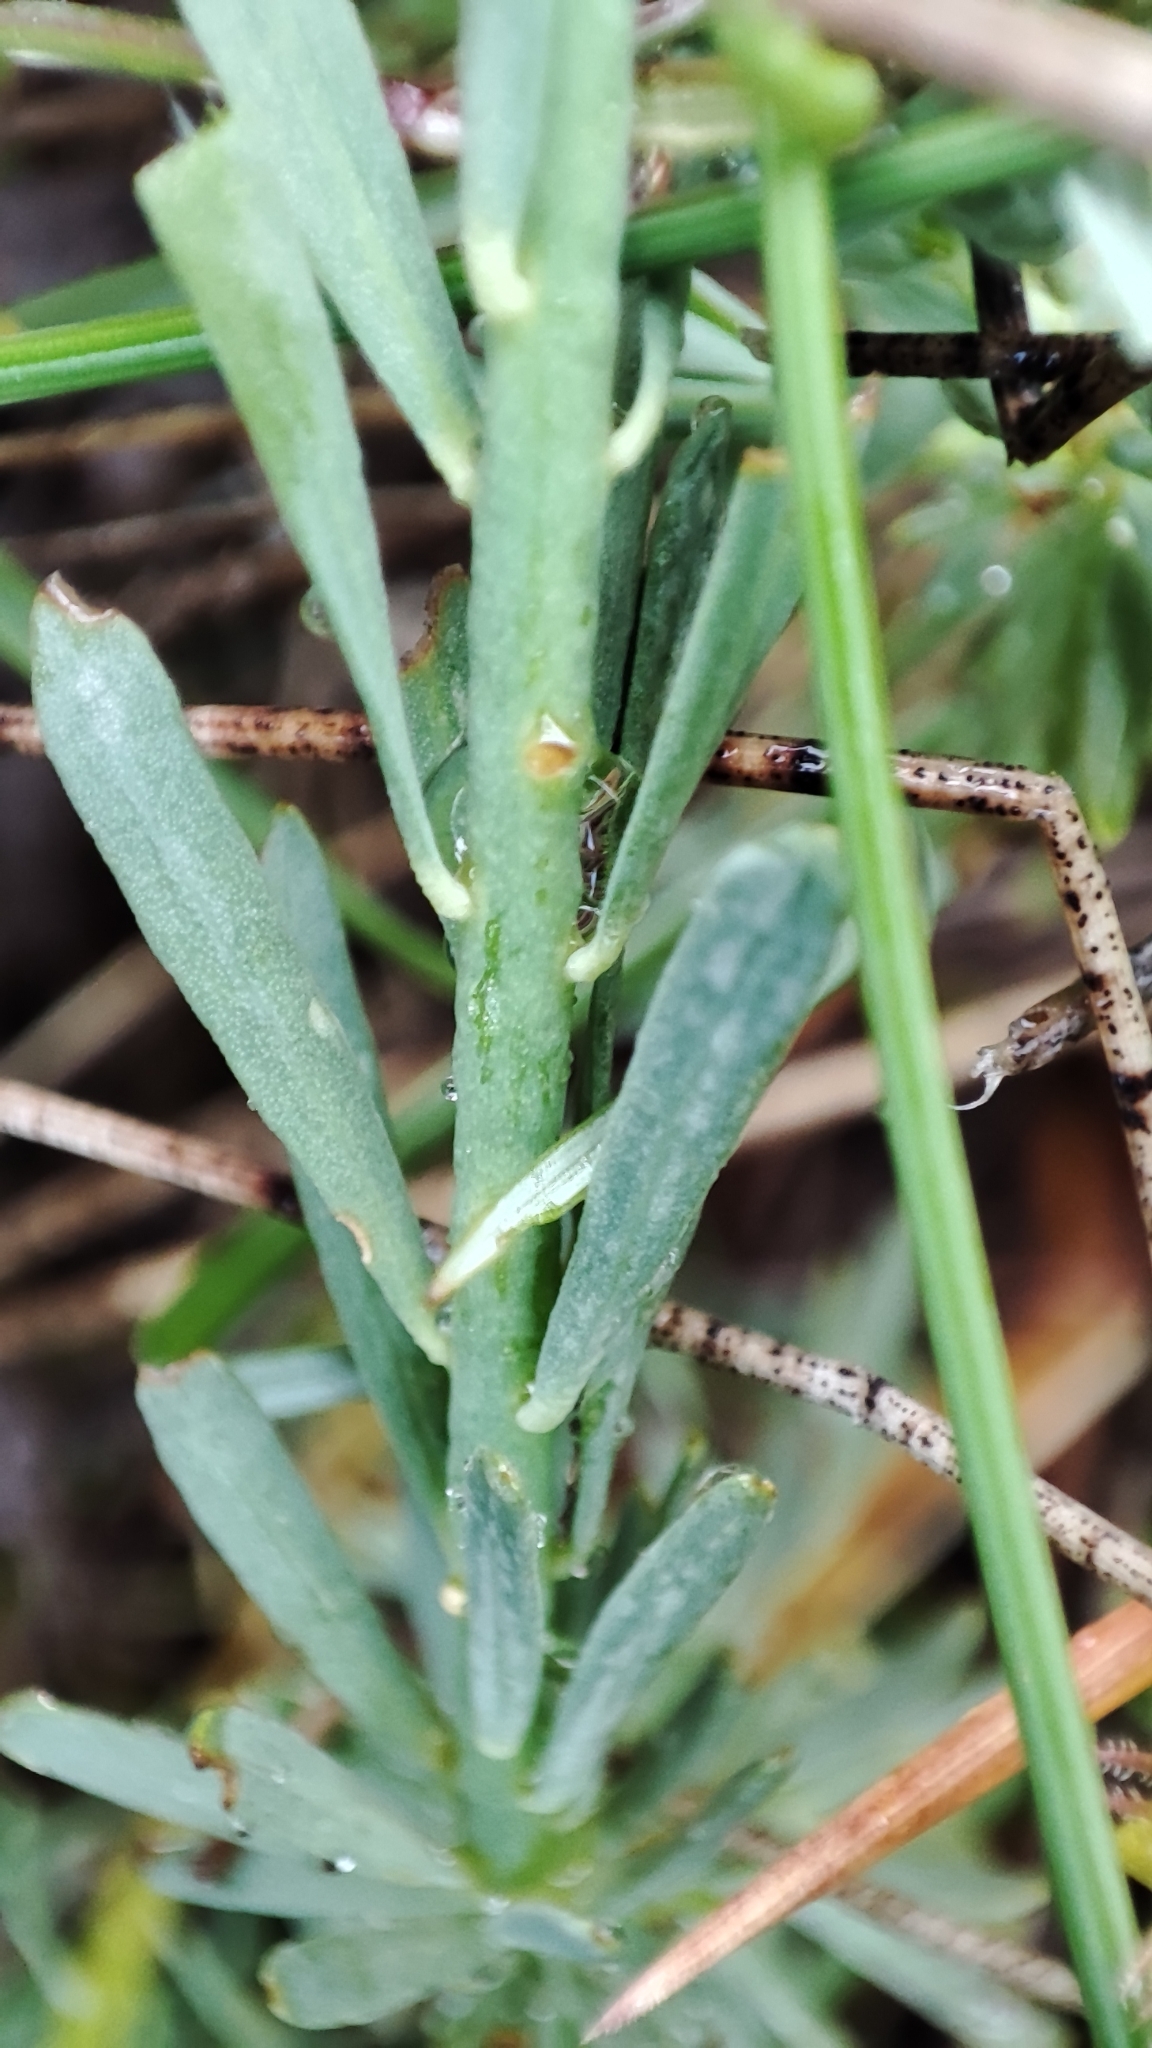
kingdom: Plantae
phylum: Tracheophyta
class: Magnoliopsida
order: Malvales
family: Thymelaeaceae
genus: Thymelaea
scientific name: Thymelaea pubescens
